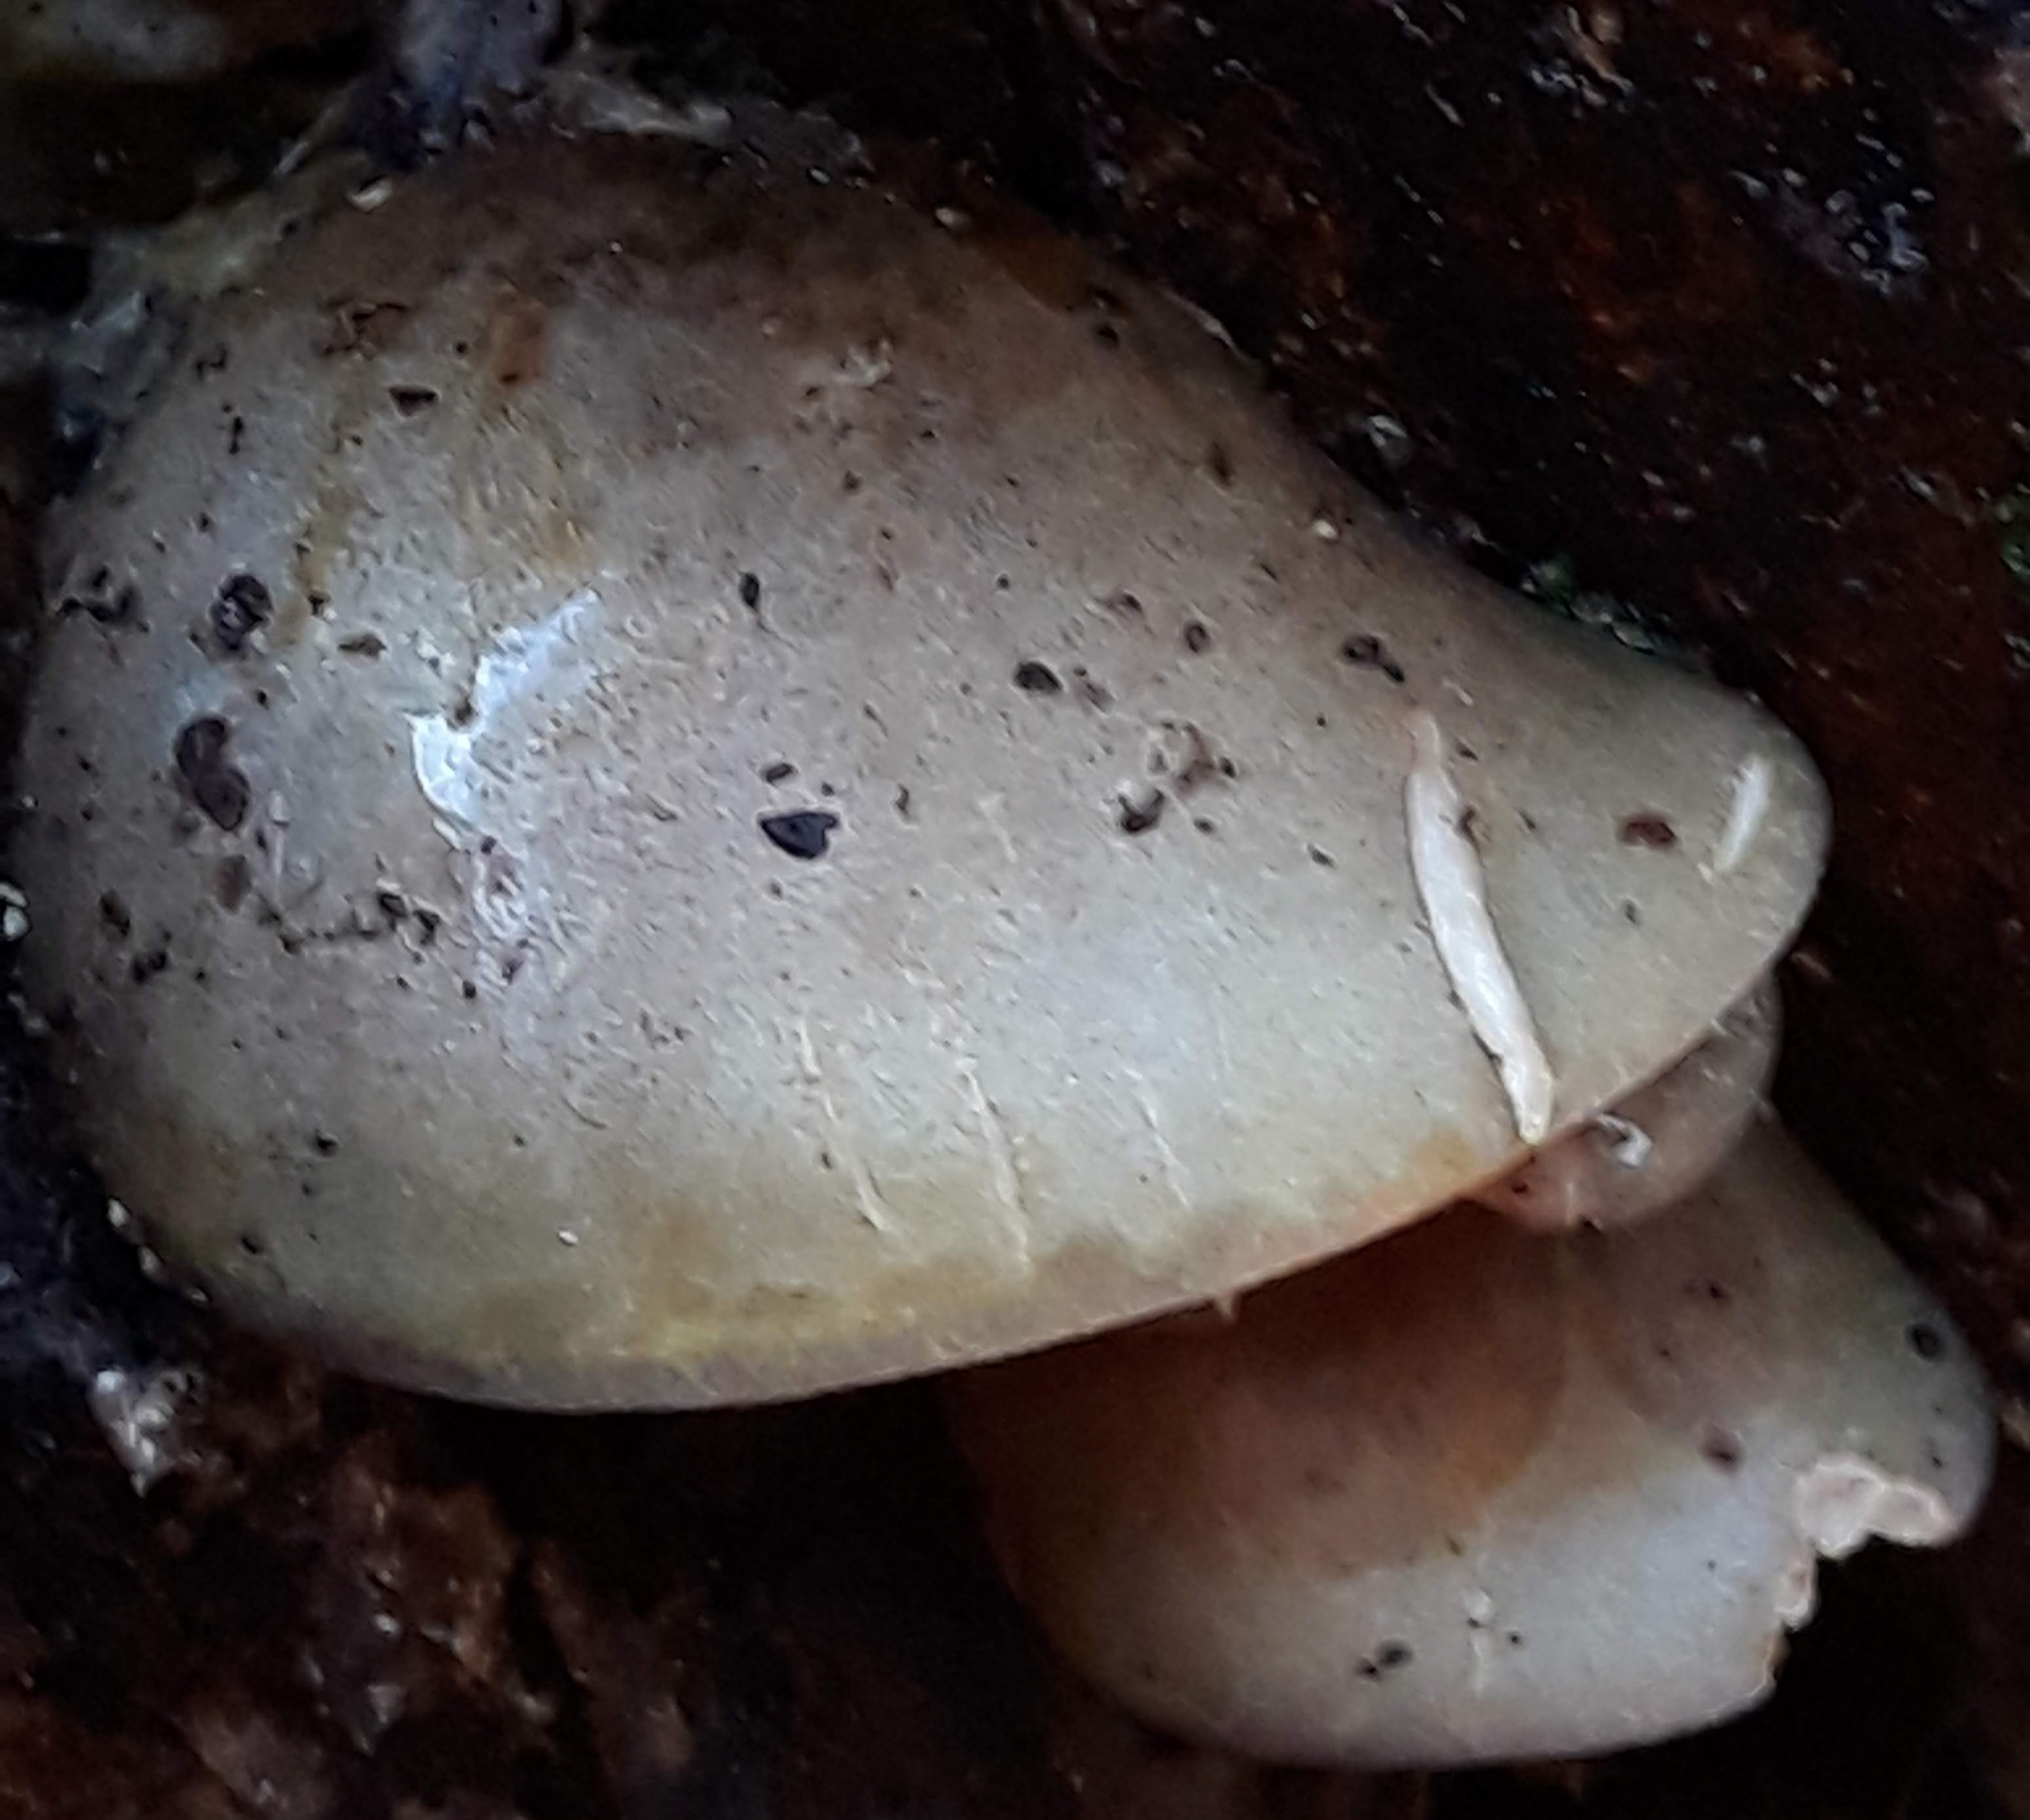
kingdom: Fungi
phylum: Basidiomycota
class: Agaricomycetes
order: Agaricales
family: Sarcomyxaceae
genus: Sarcomyxa
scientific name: Sarcomyxa serotina
